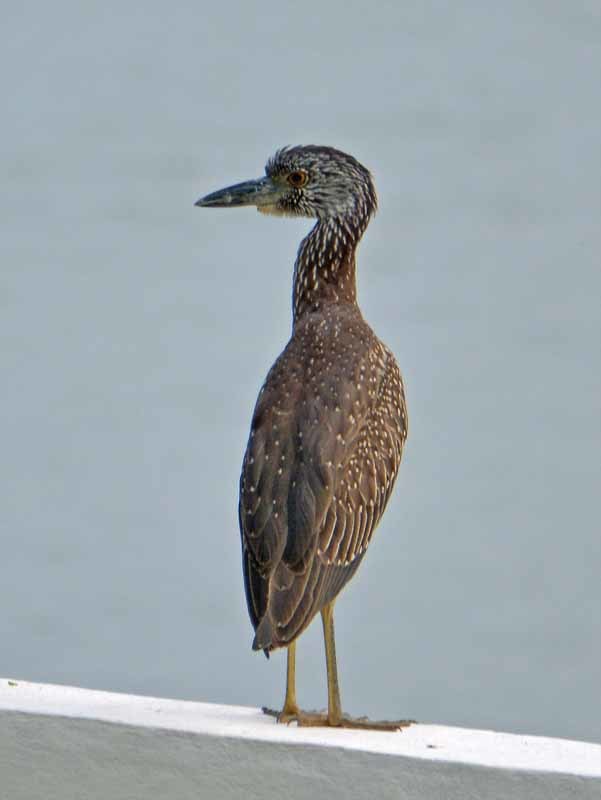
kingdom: Animalia
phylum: Chordata
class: Aves
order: Pelecaniformes
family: Ardeidae
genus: Nyctanassa
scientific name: Nyctanassa violacea
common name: Yellow-crowned night heron
